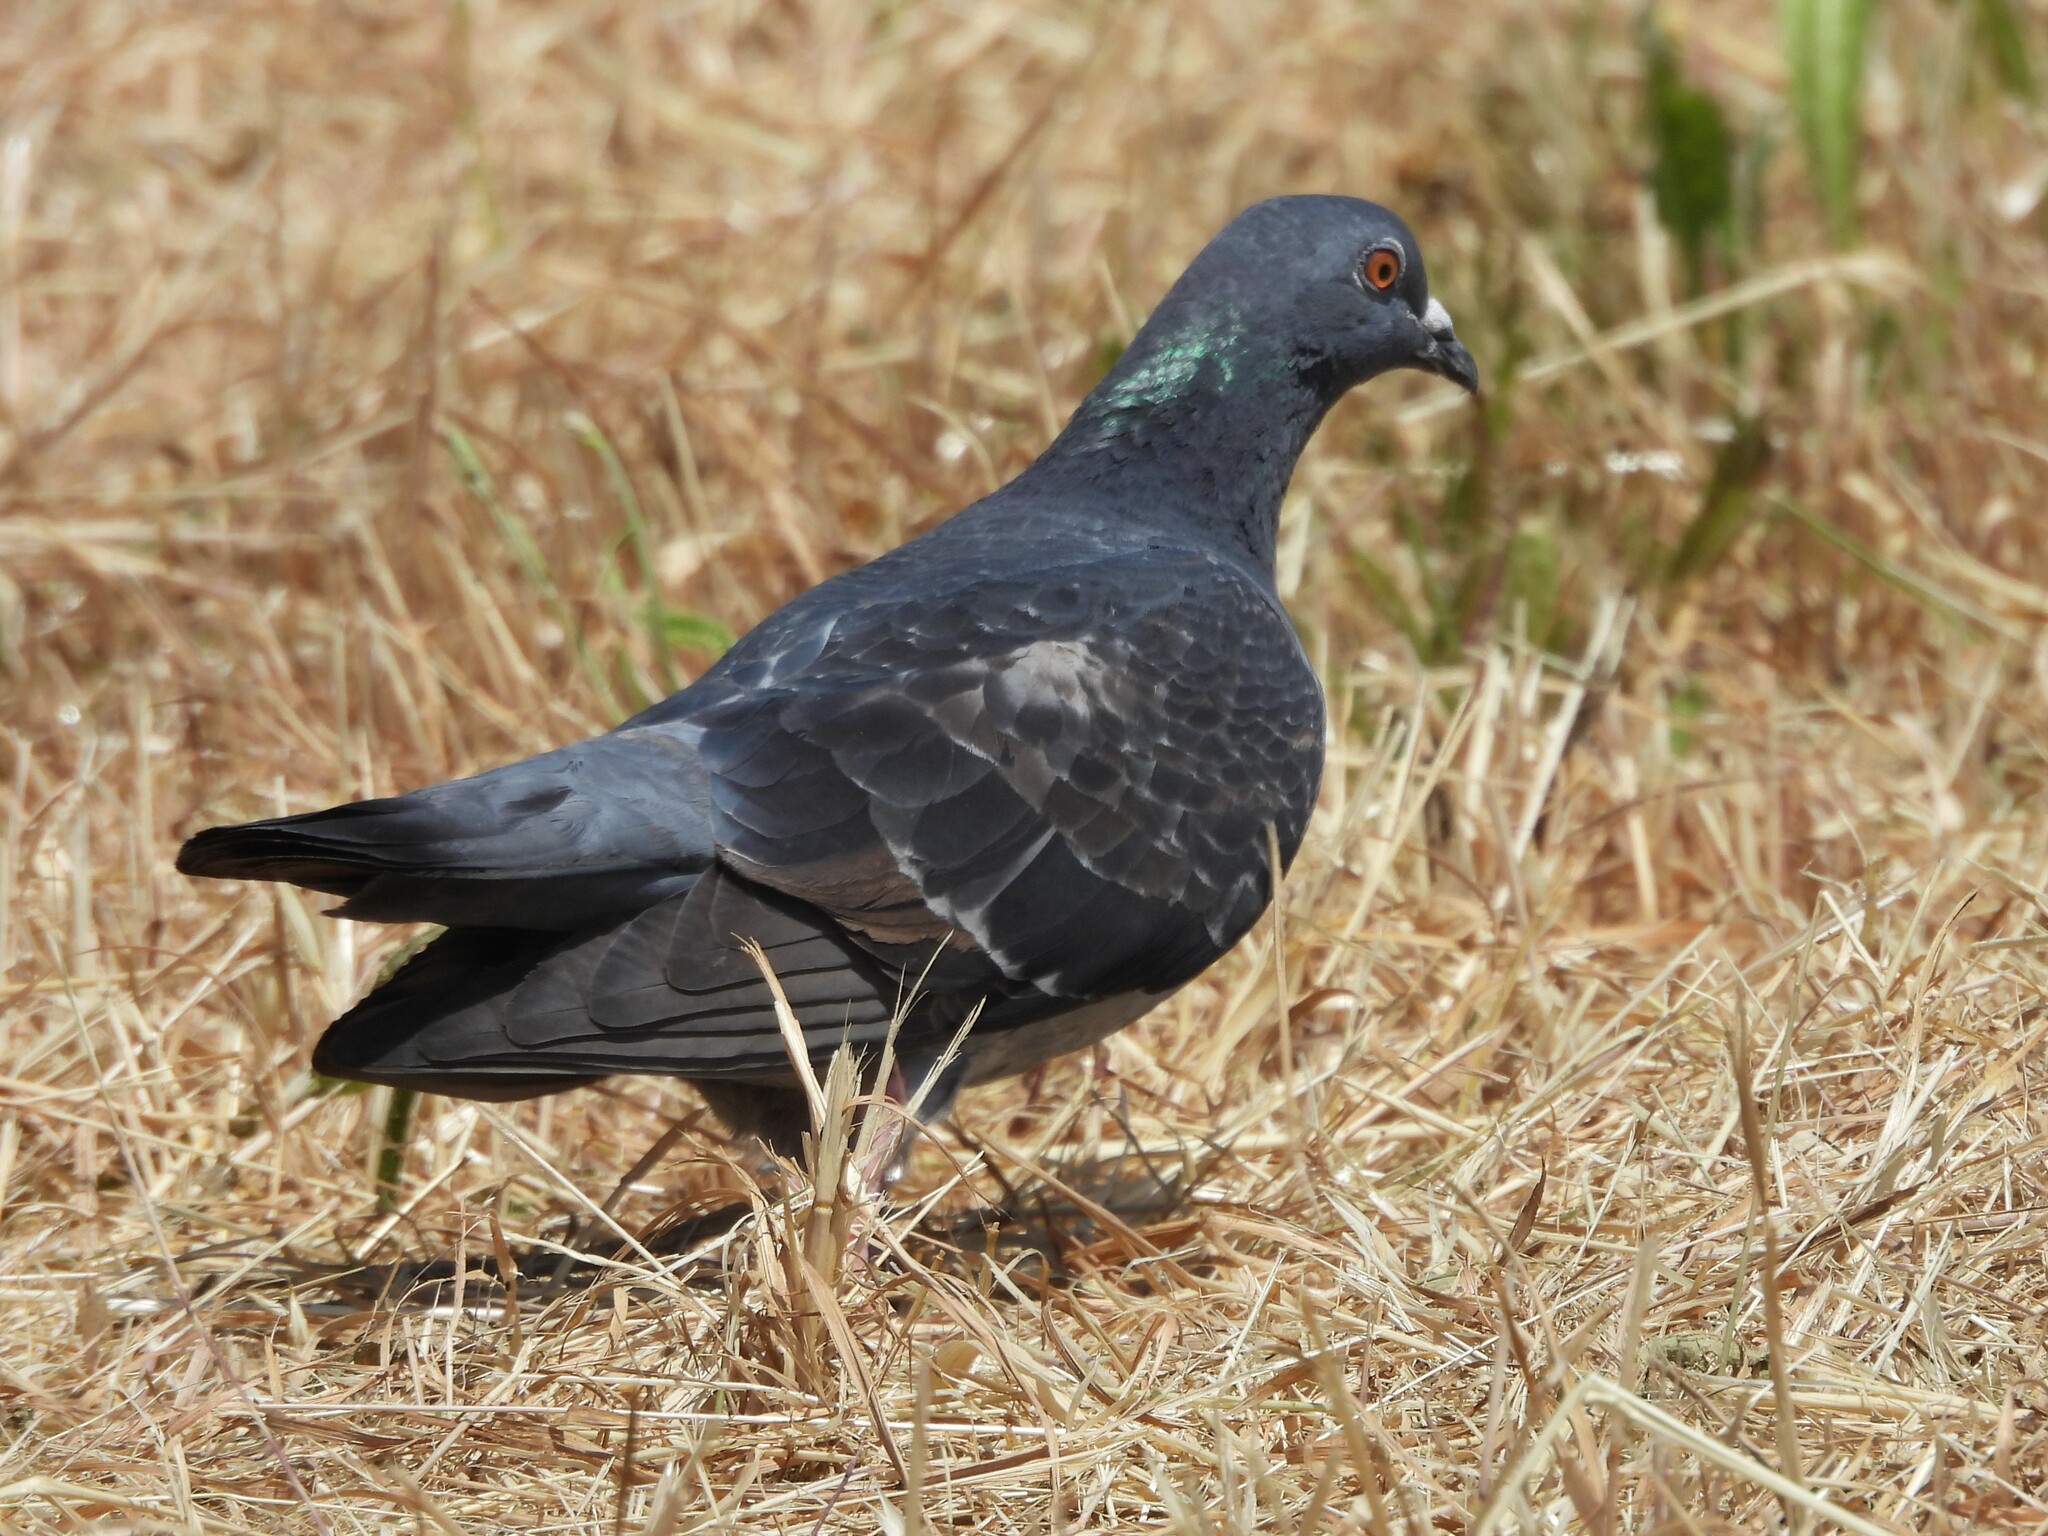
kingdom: Animalia
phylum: Chordata
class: Aves
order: Columbiformes
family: Columbidae
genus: Columba
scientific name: Columba livia
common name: Rock pigeon
